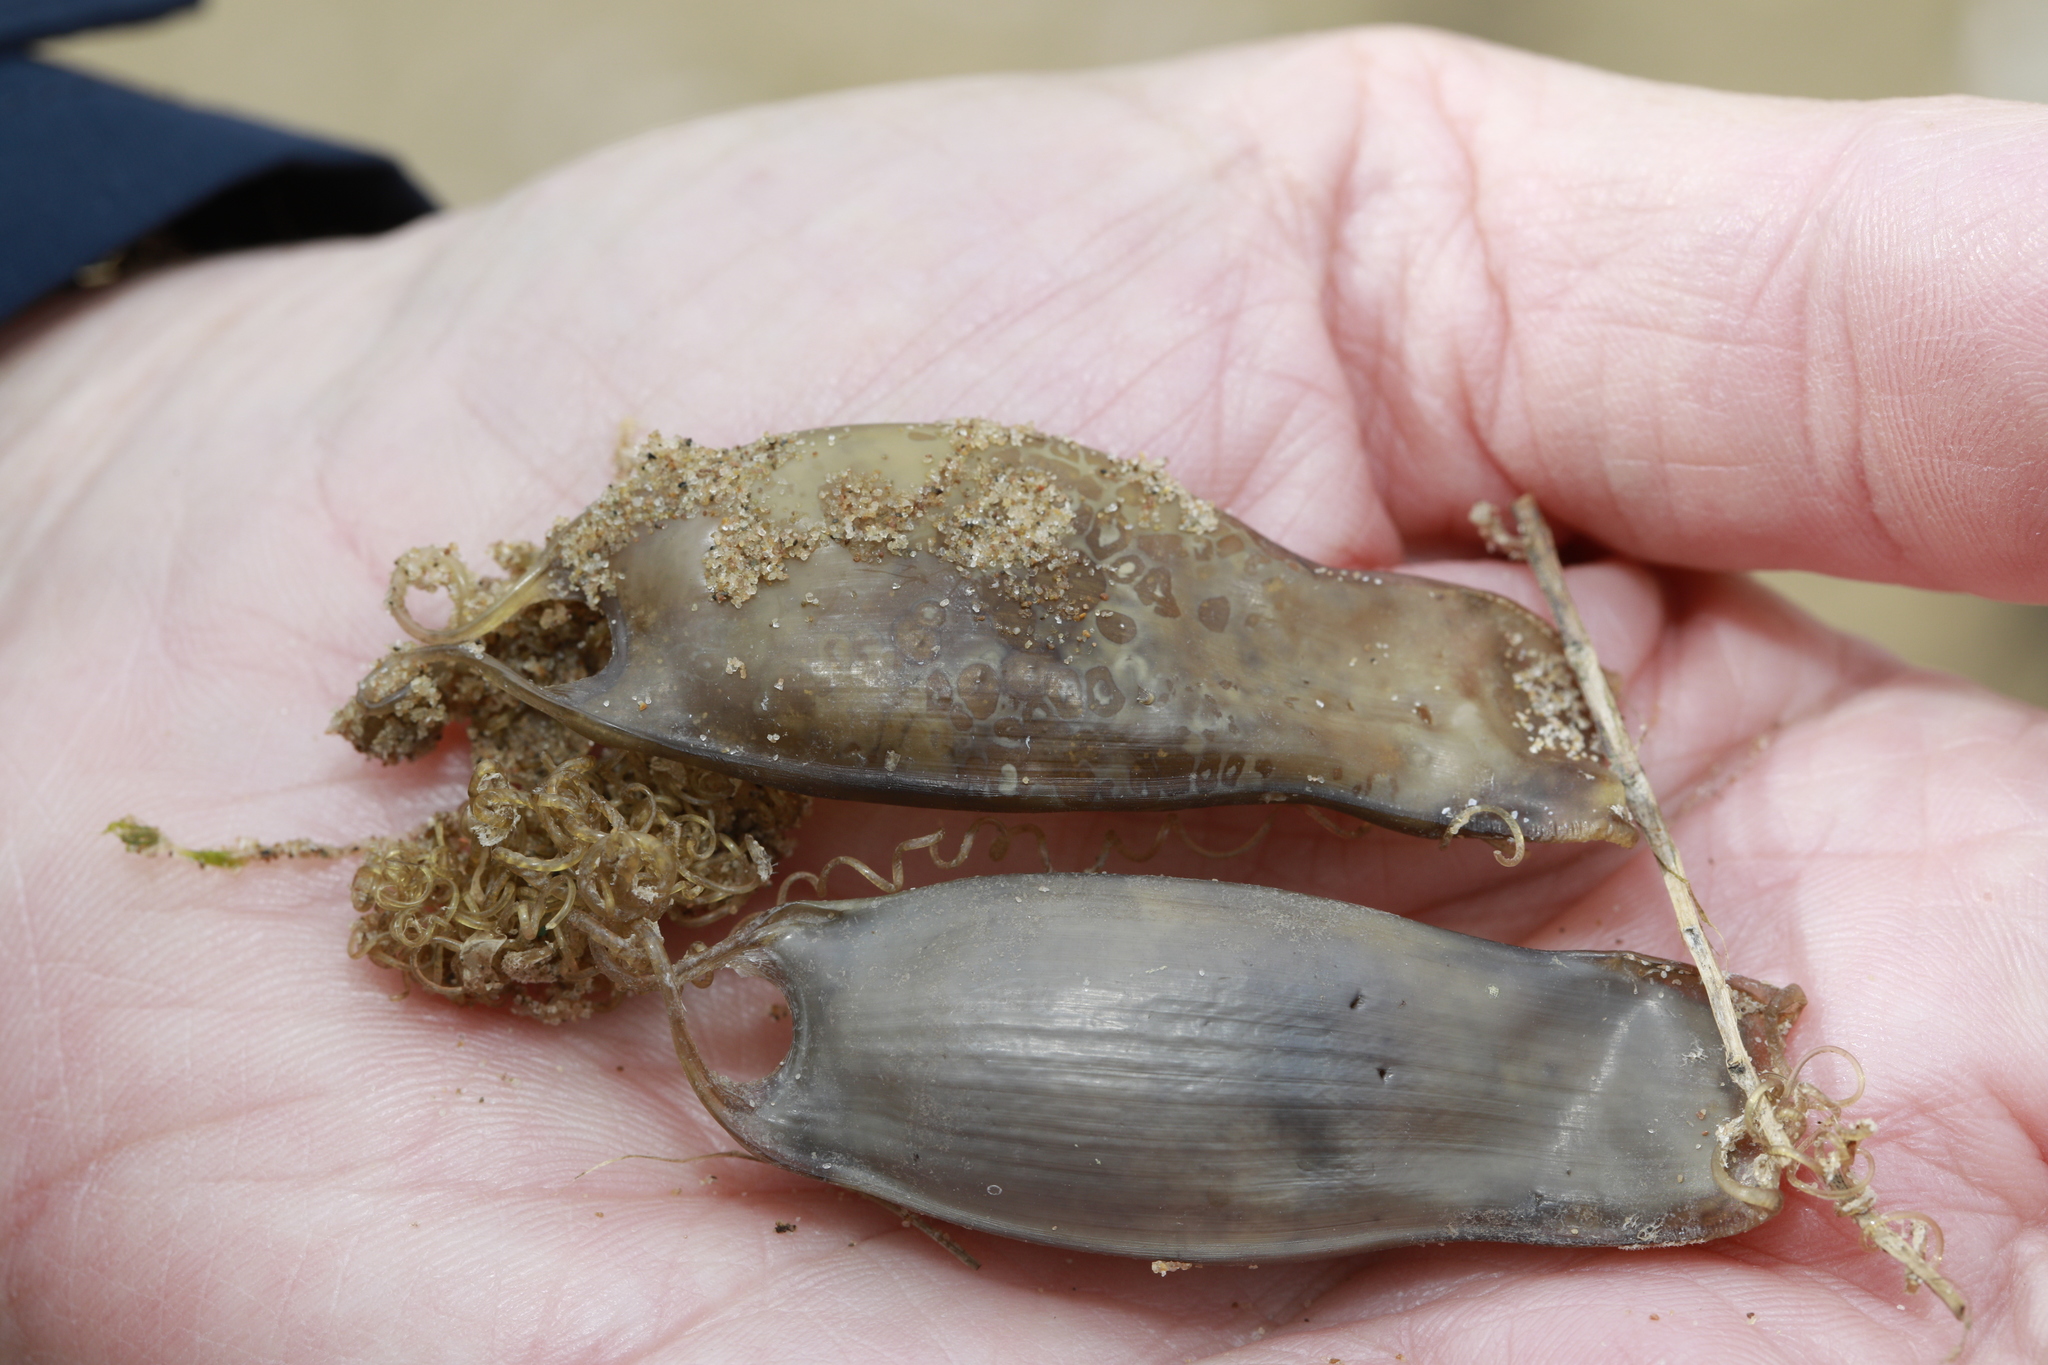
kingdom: Animalia
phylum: Chordata
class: Elasmobranchii
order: Carcharhiniformes
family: Scyliorhinidae
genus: Scyliorhinus
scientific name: Scyliorhinus canicula
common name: Lesser spotted dogfish
